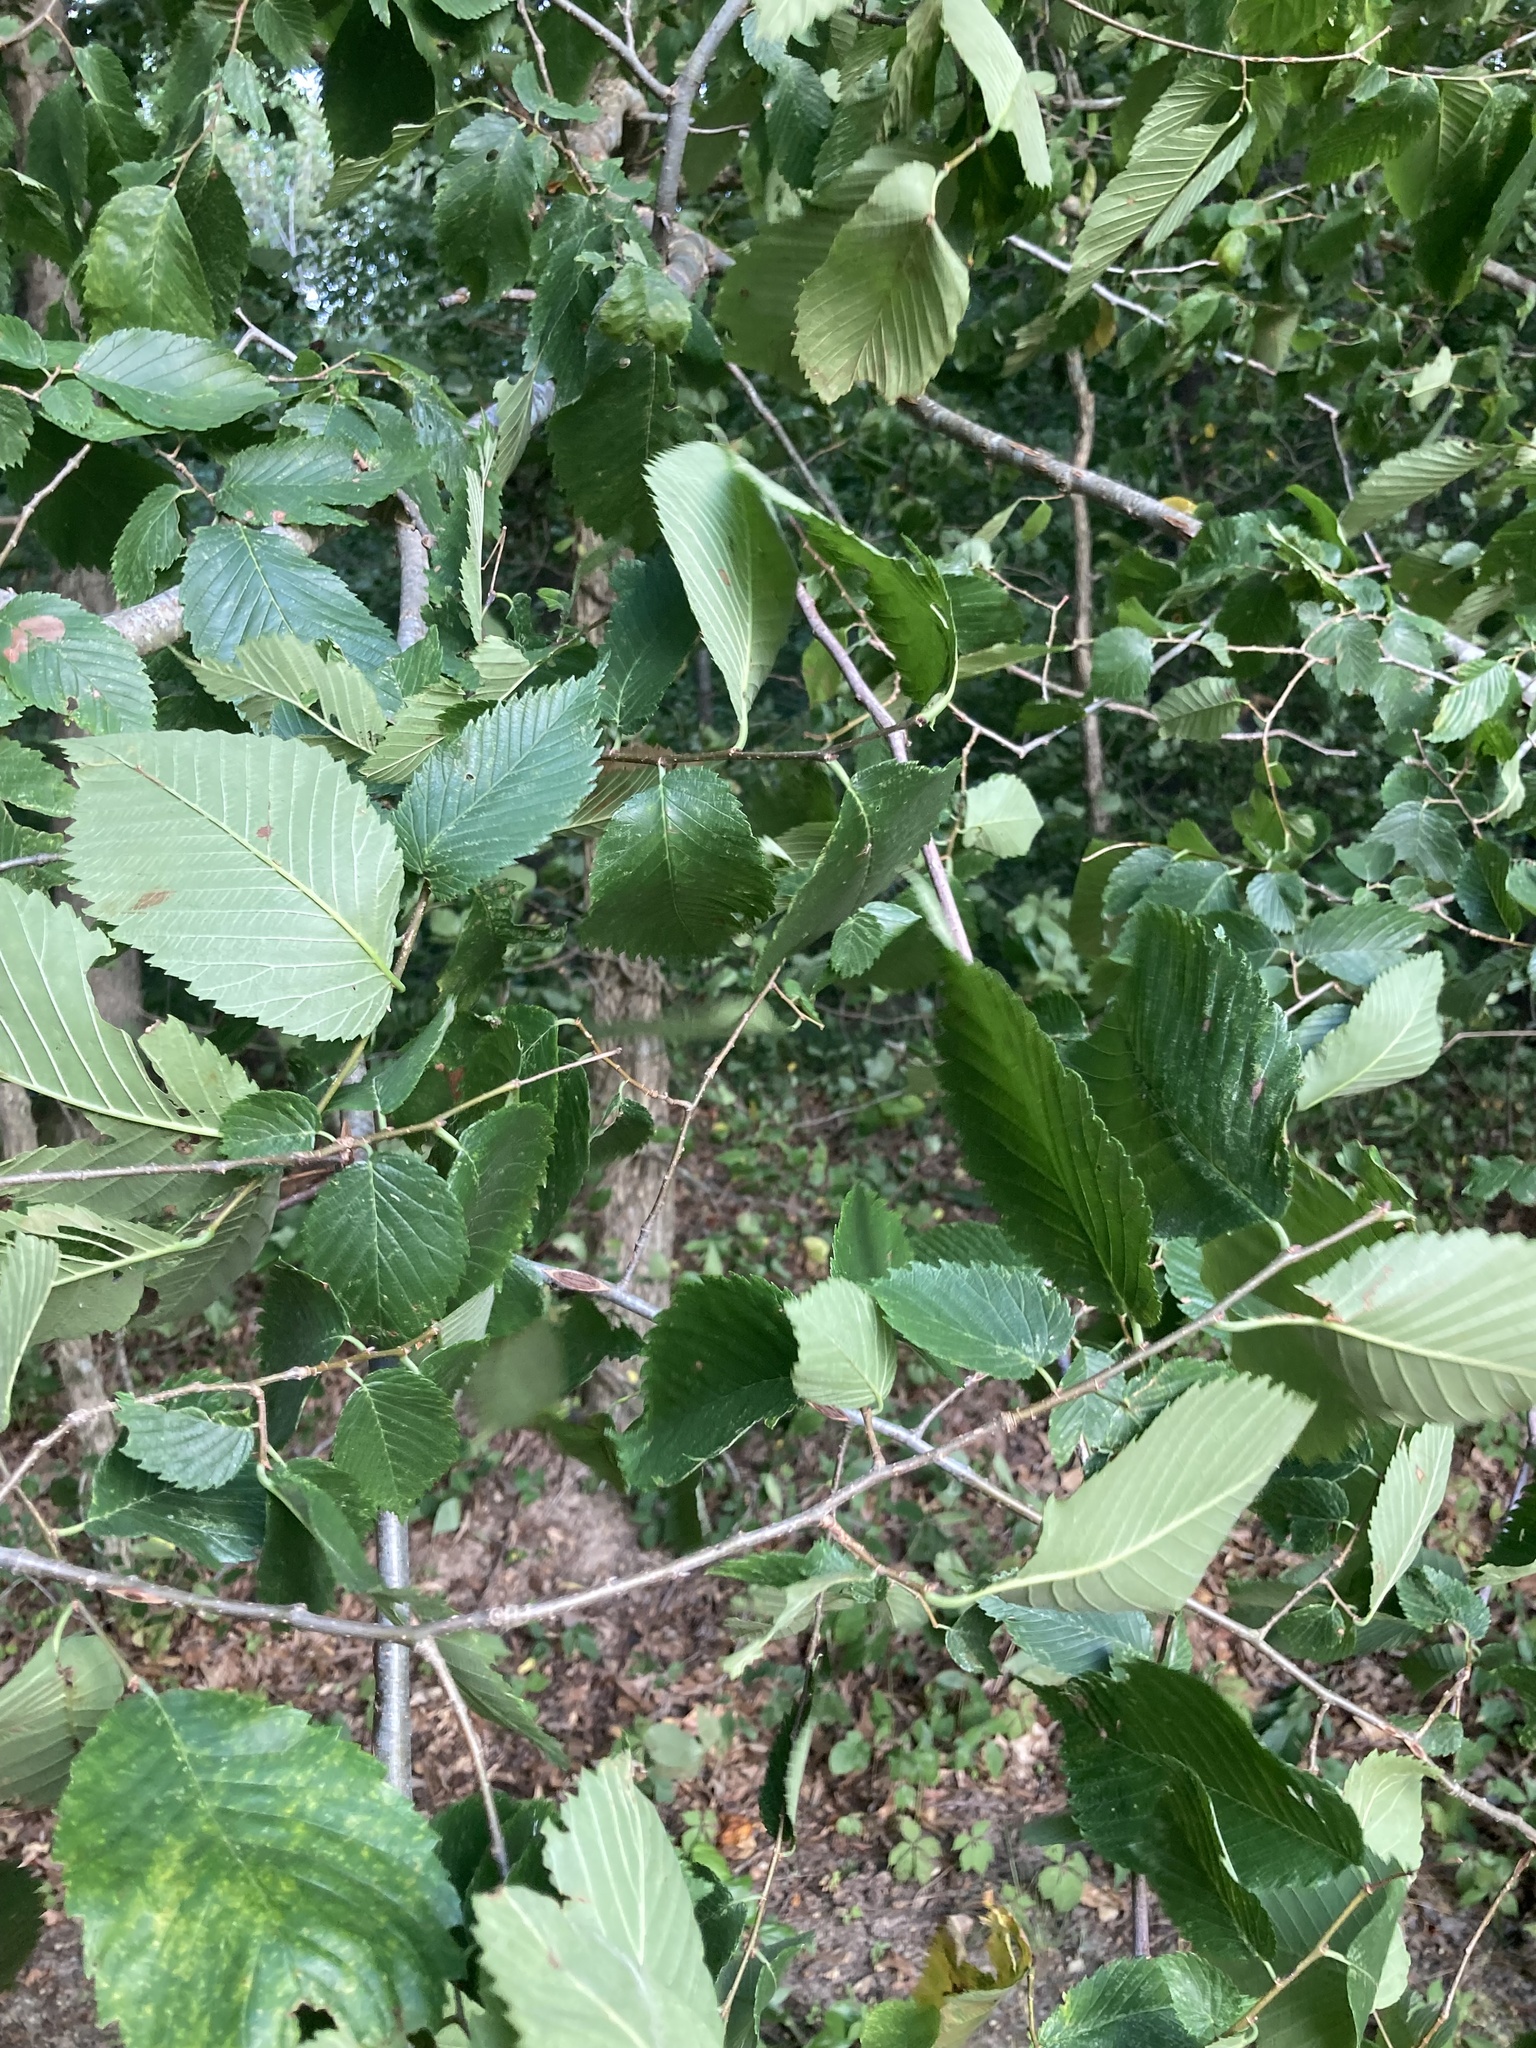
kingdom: Plantae
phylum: Tracheophyta
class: Magnoliopsida
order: Rosales
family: Ulmaceae
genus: Ulmus
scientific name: Ulmus americana
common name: American elm
